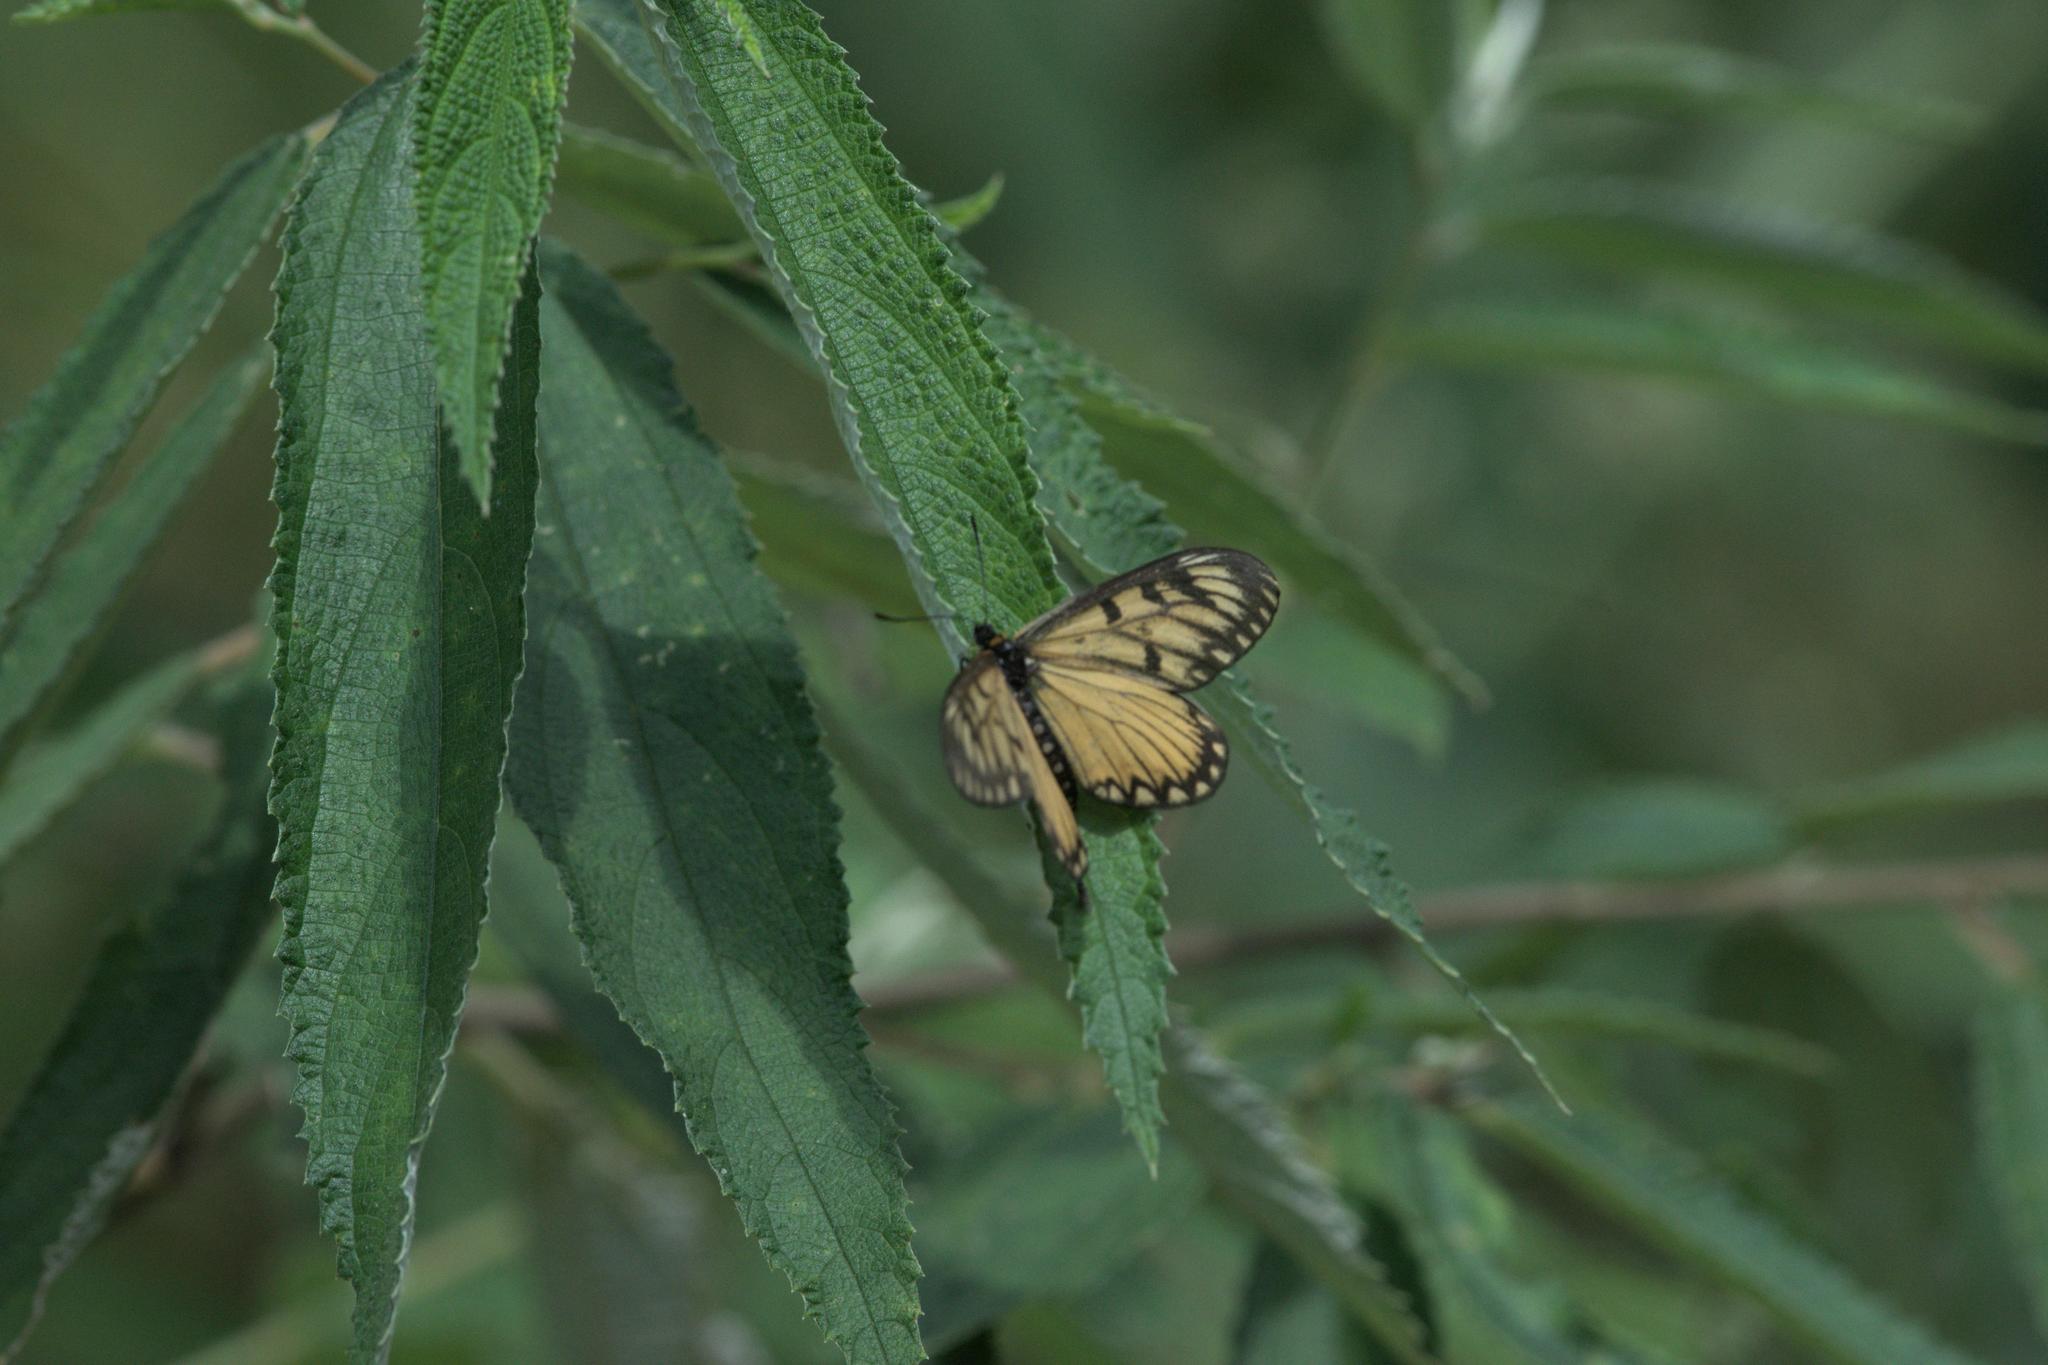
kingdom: Animalia
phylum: Arthropoda
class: Insecta
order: Lepidoptera
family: Nymphalidae
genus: Acraea
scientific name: Acraea Telchinia issoria
